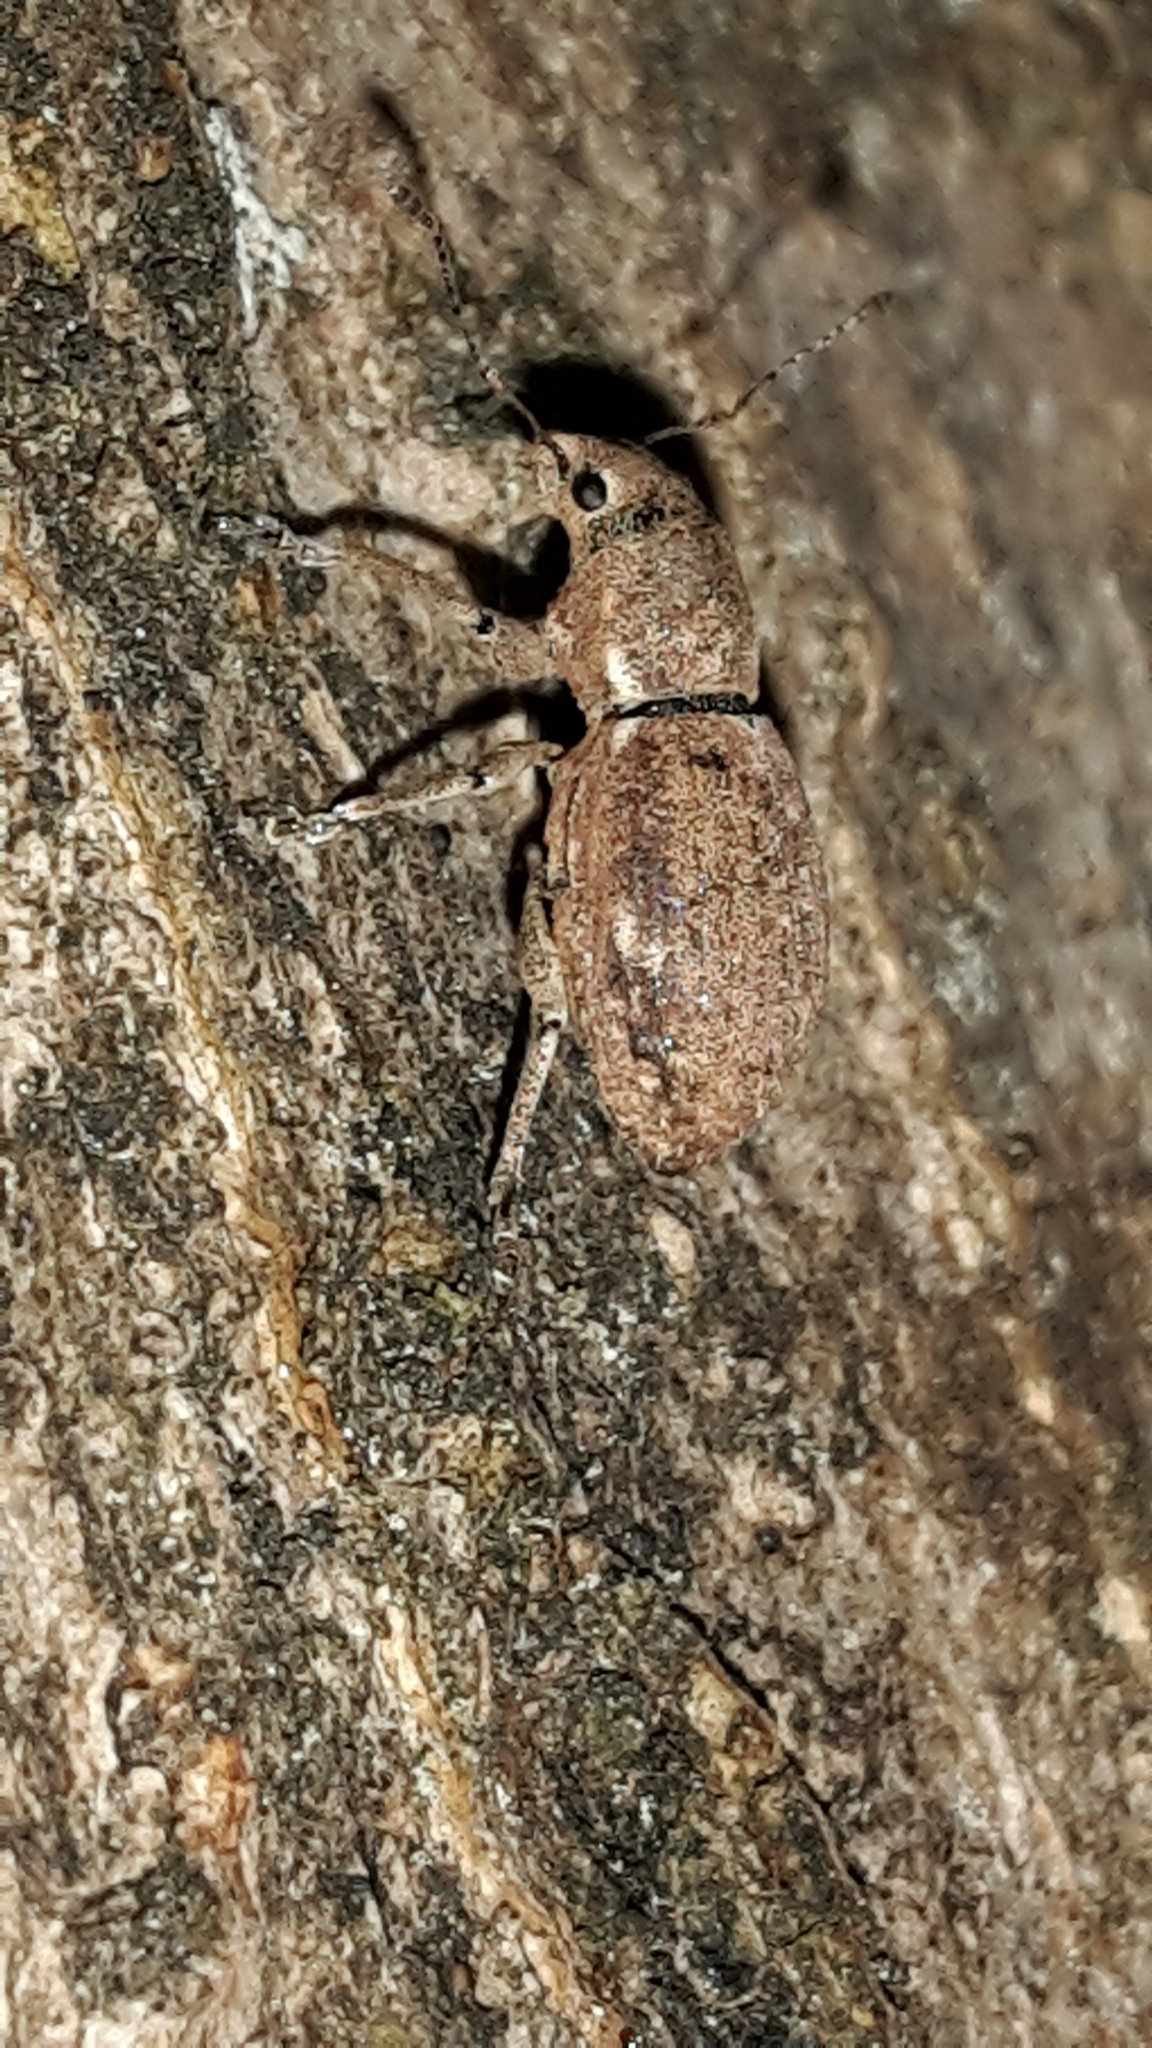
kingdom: Animalia
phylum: Arthropoda
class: Insecta
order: Coleoptera
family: Curculionidae
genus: Naupactus
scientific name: Naupactus cervinus
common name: Fuller rose beetle
